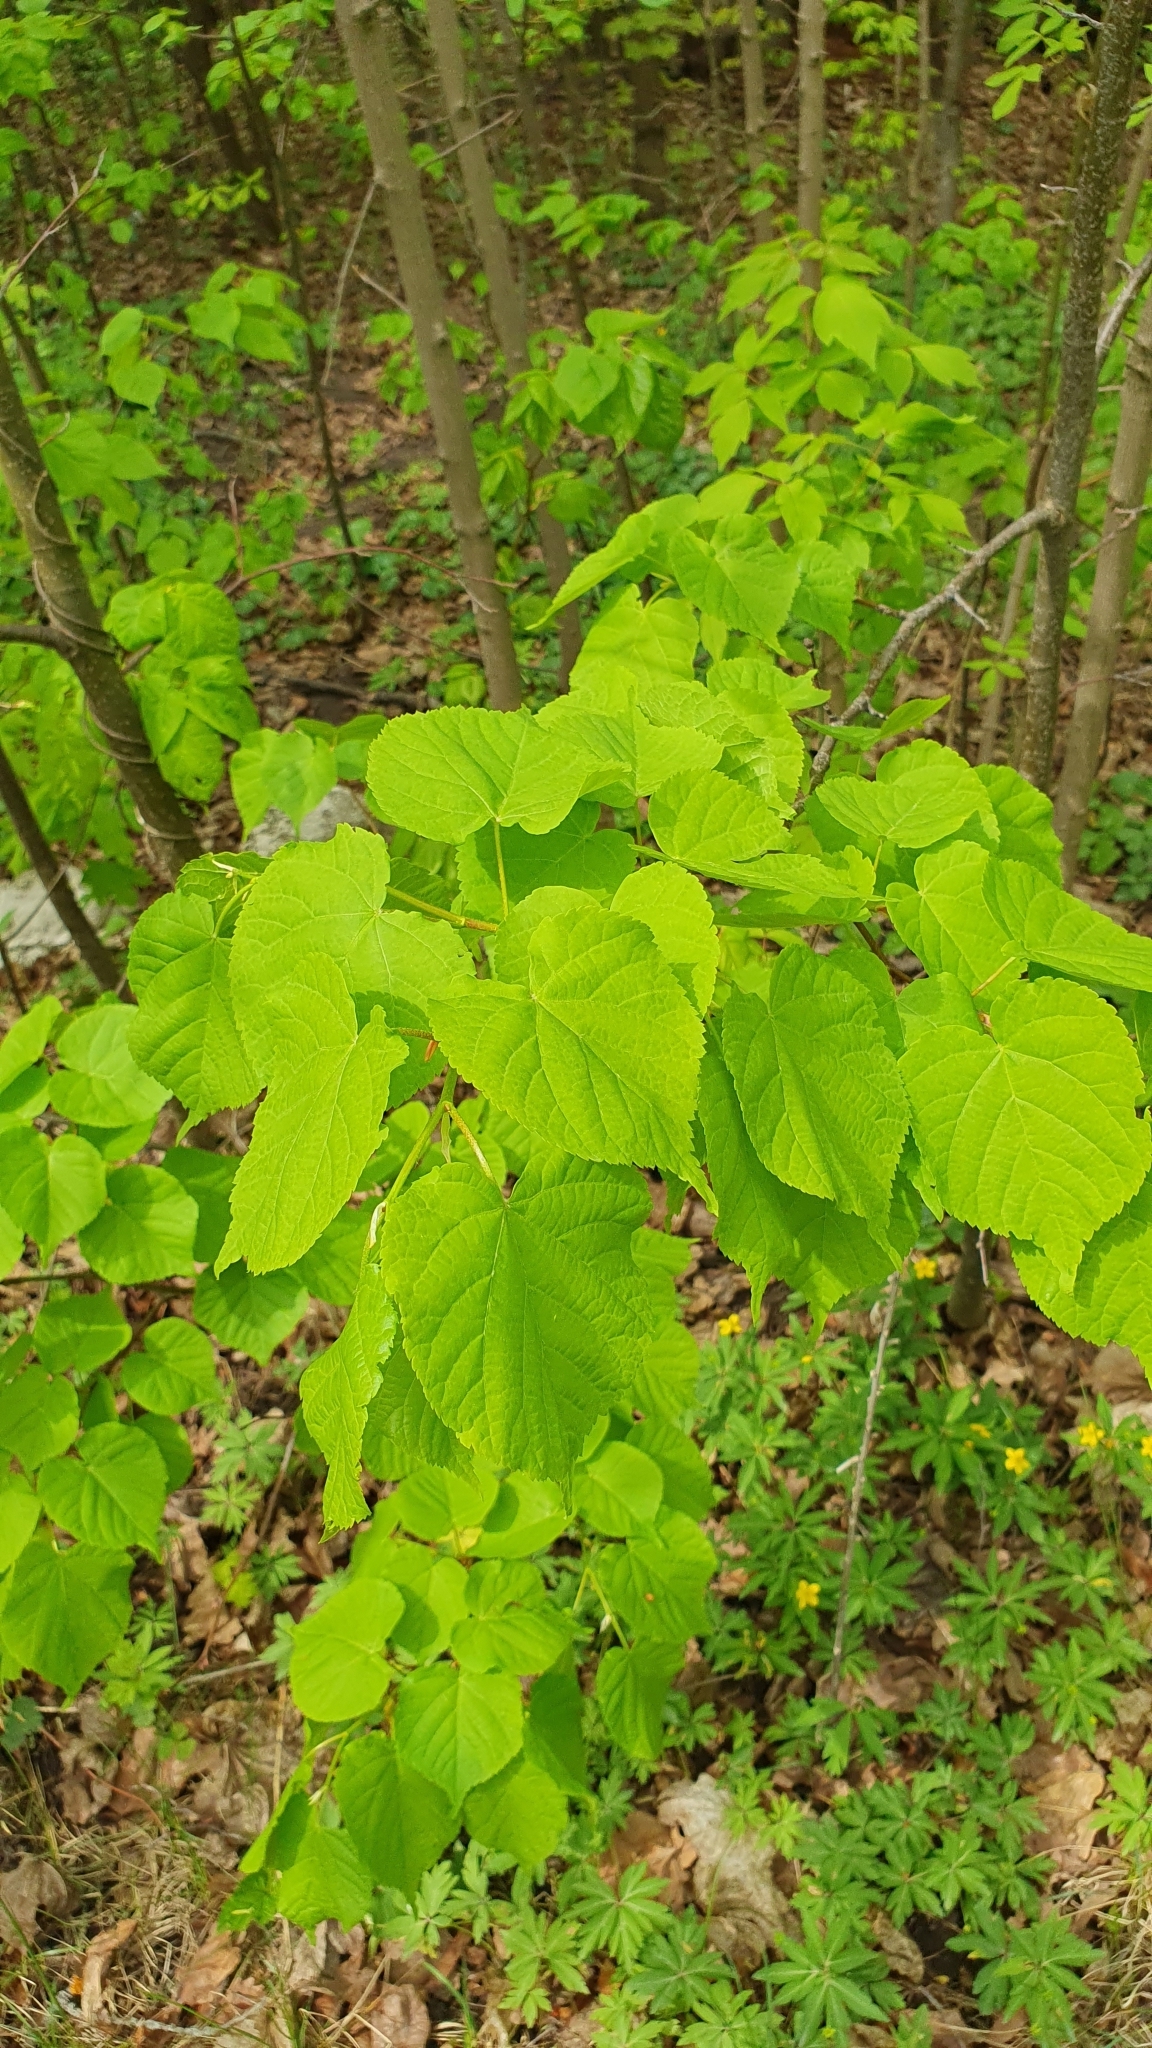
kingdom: Plantae
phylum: Tracheophyta
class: Magnoliopsida
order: Malvales
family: Malvaceae
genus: Tilia
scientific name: Tilia cordata
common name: Small-leaved lime
